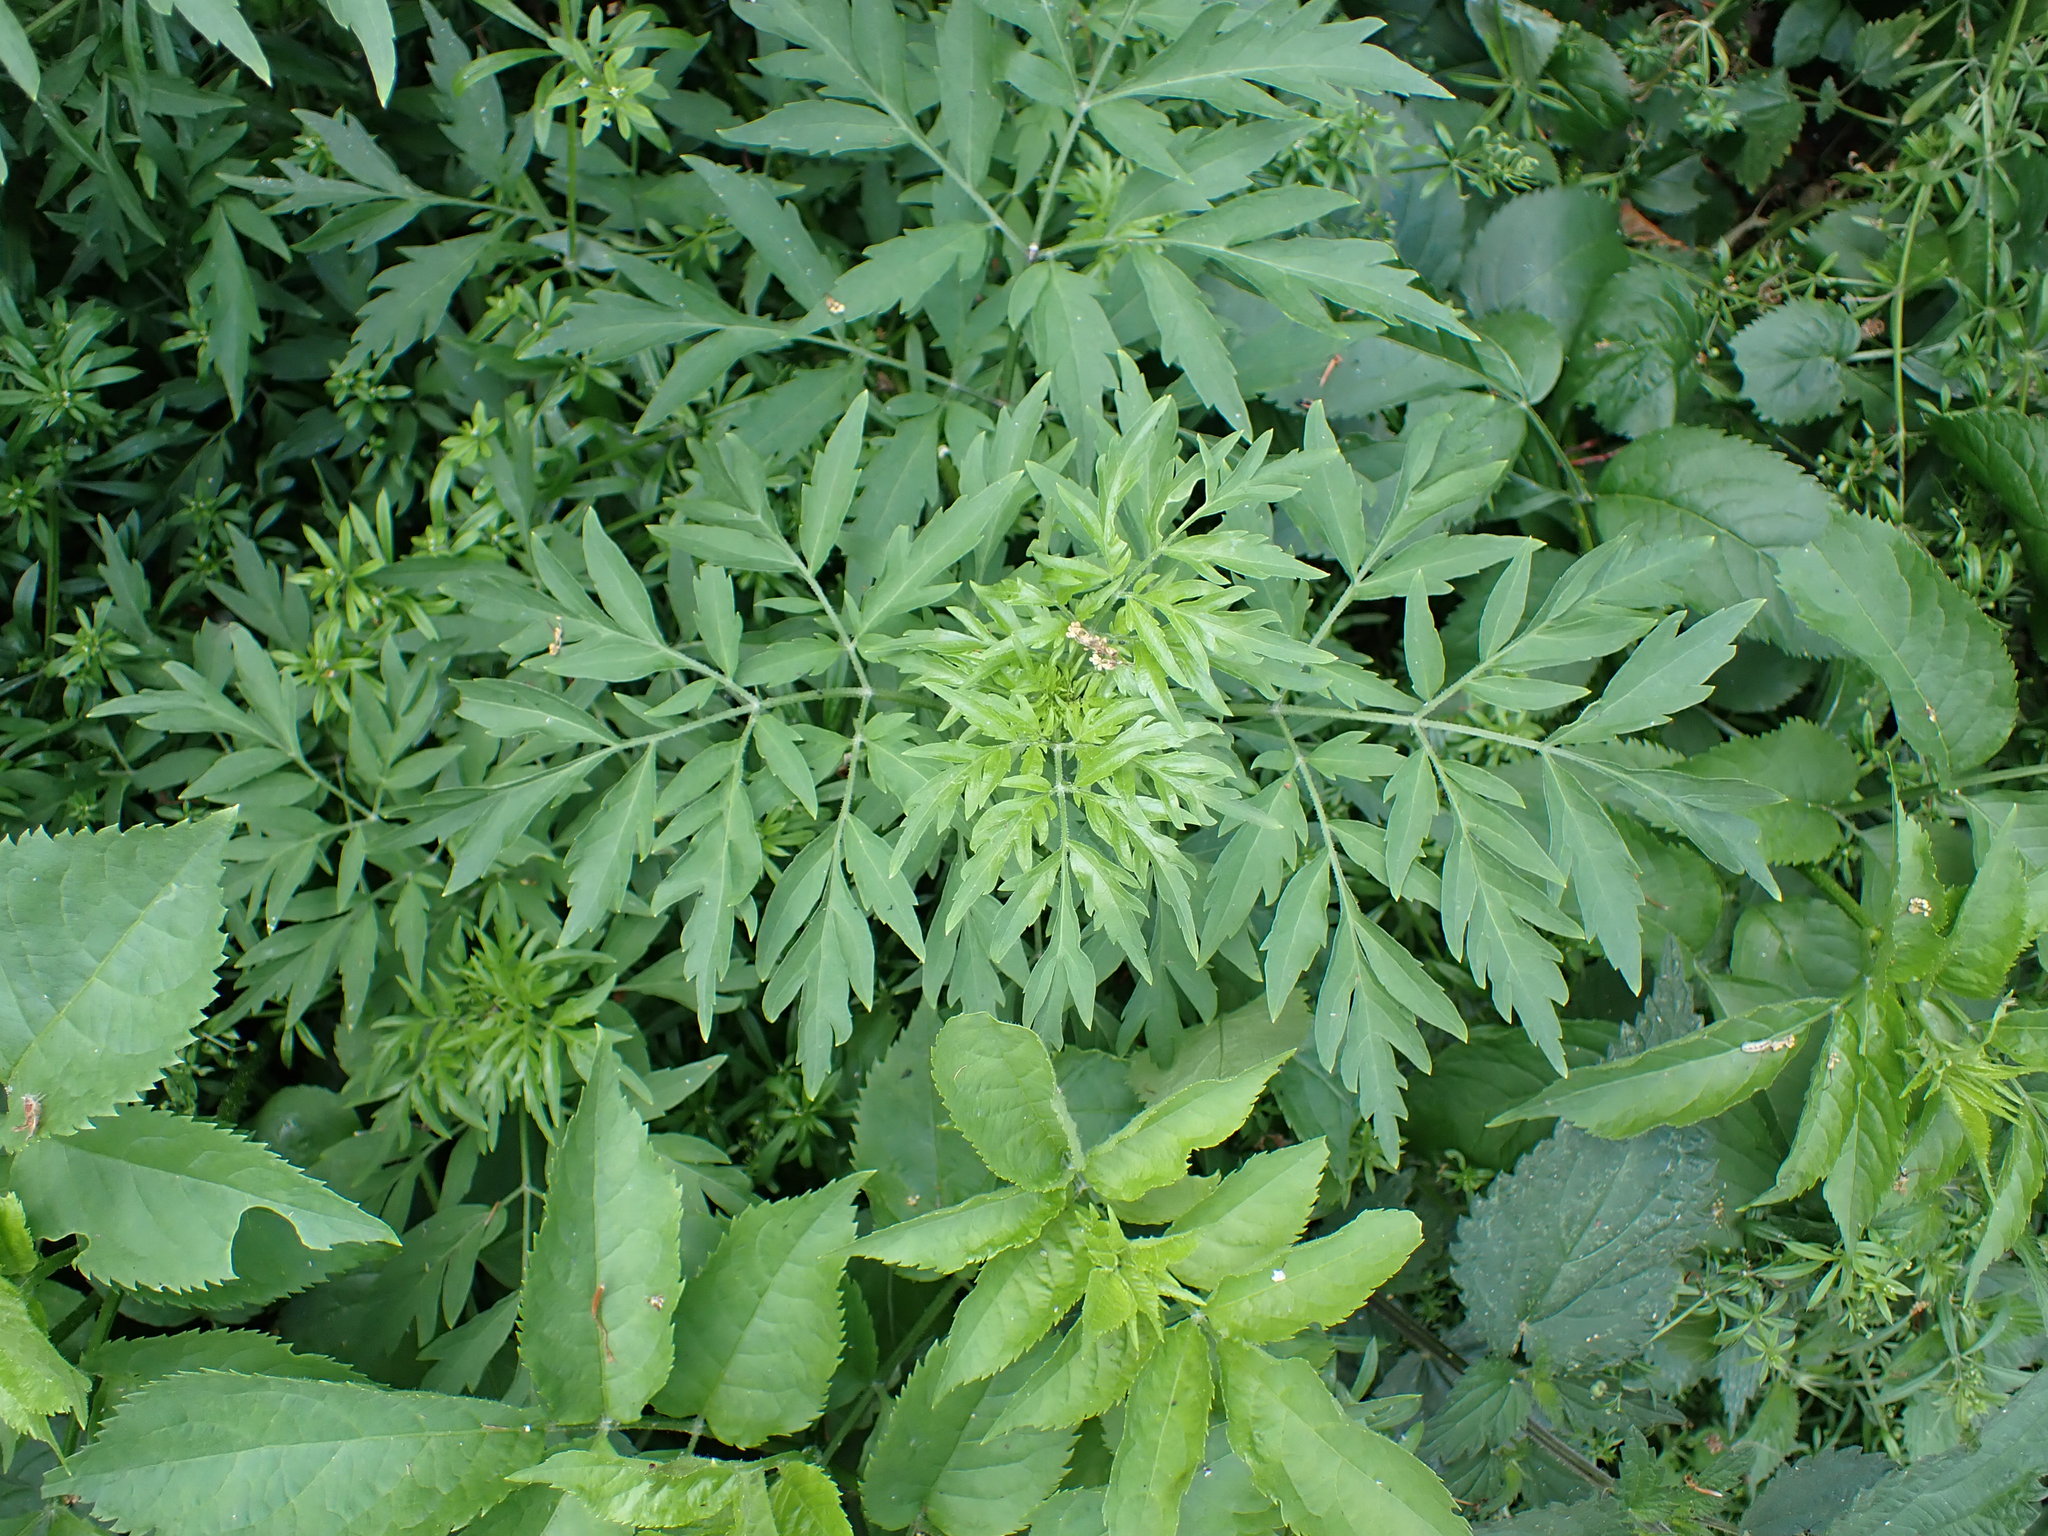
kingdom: Plantae
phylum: Tracheophyta
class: Magnoliopsida
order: Dipsacales
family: Viburnaceae
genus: Sambucus
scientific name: Sambucus nigra
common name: Elder
